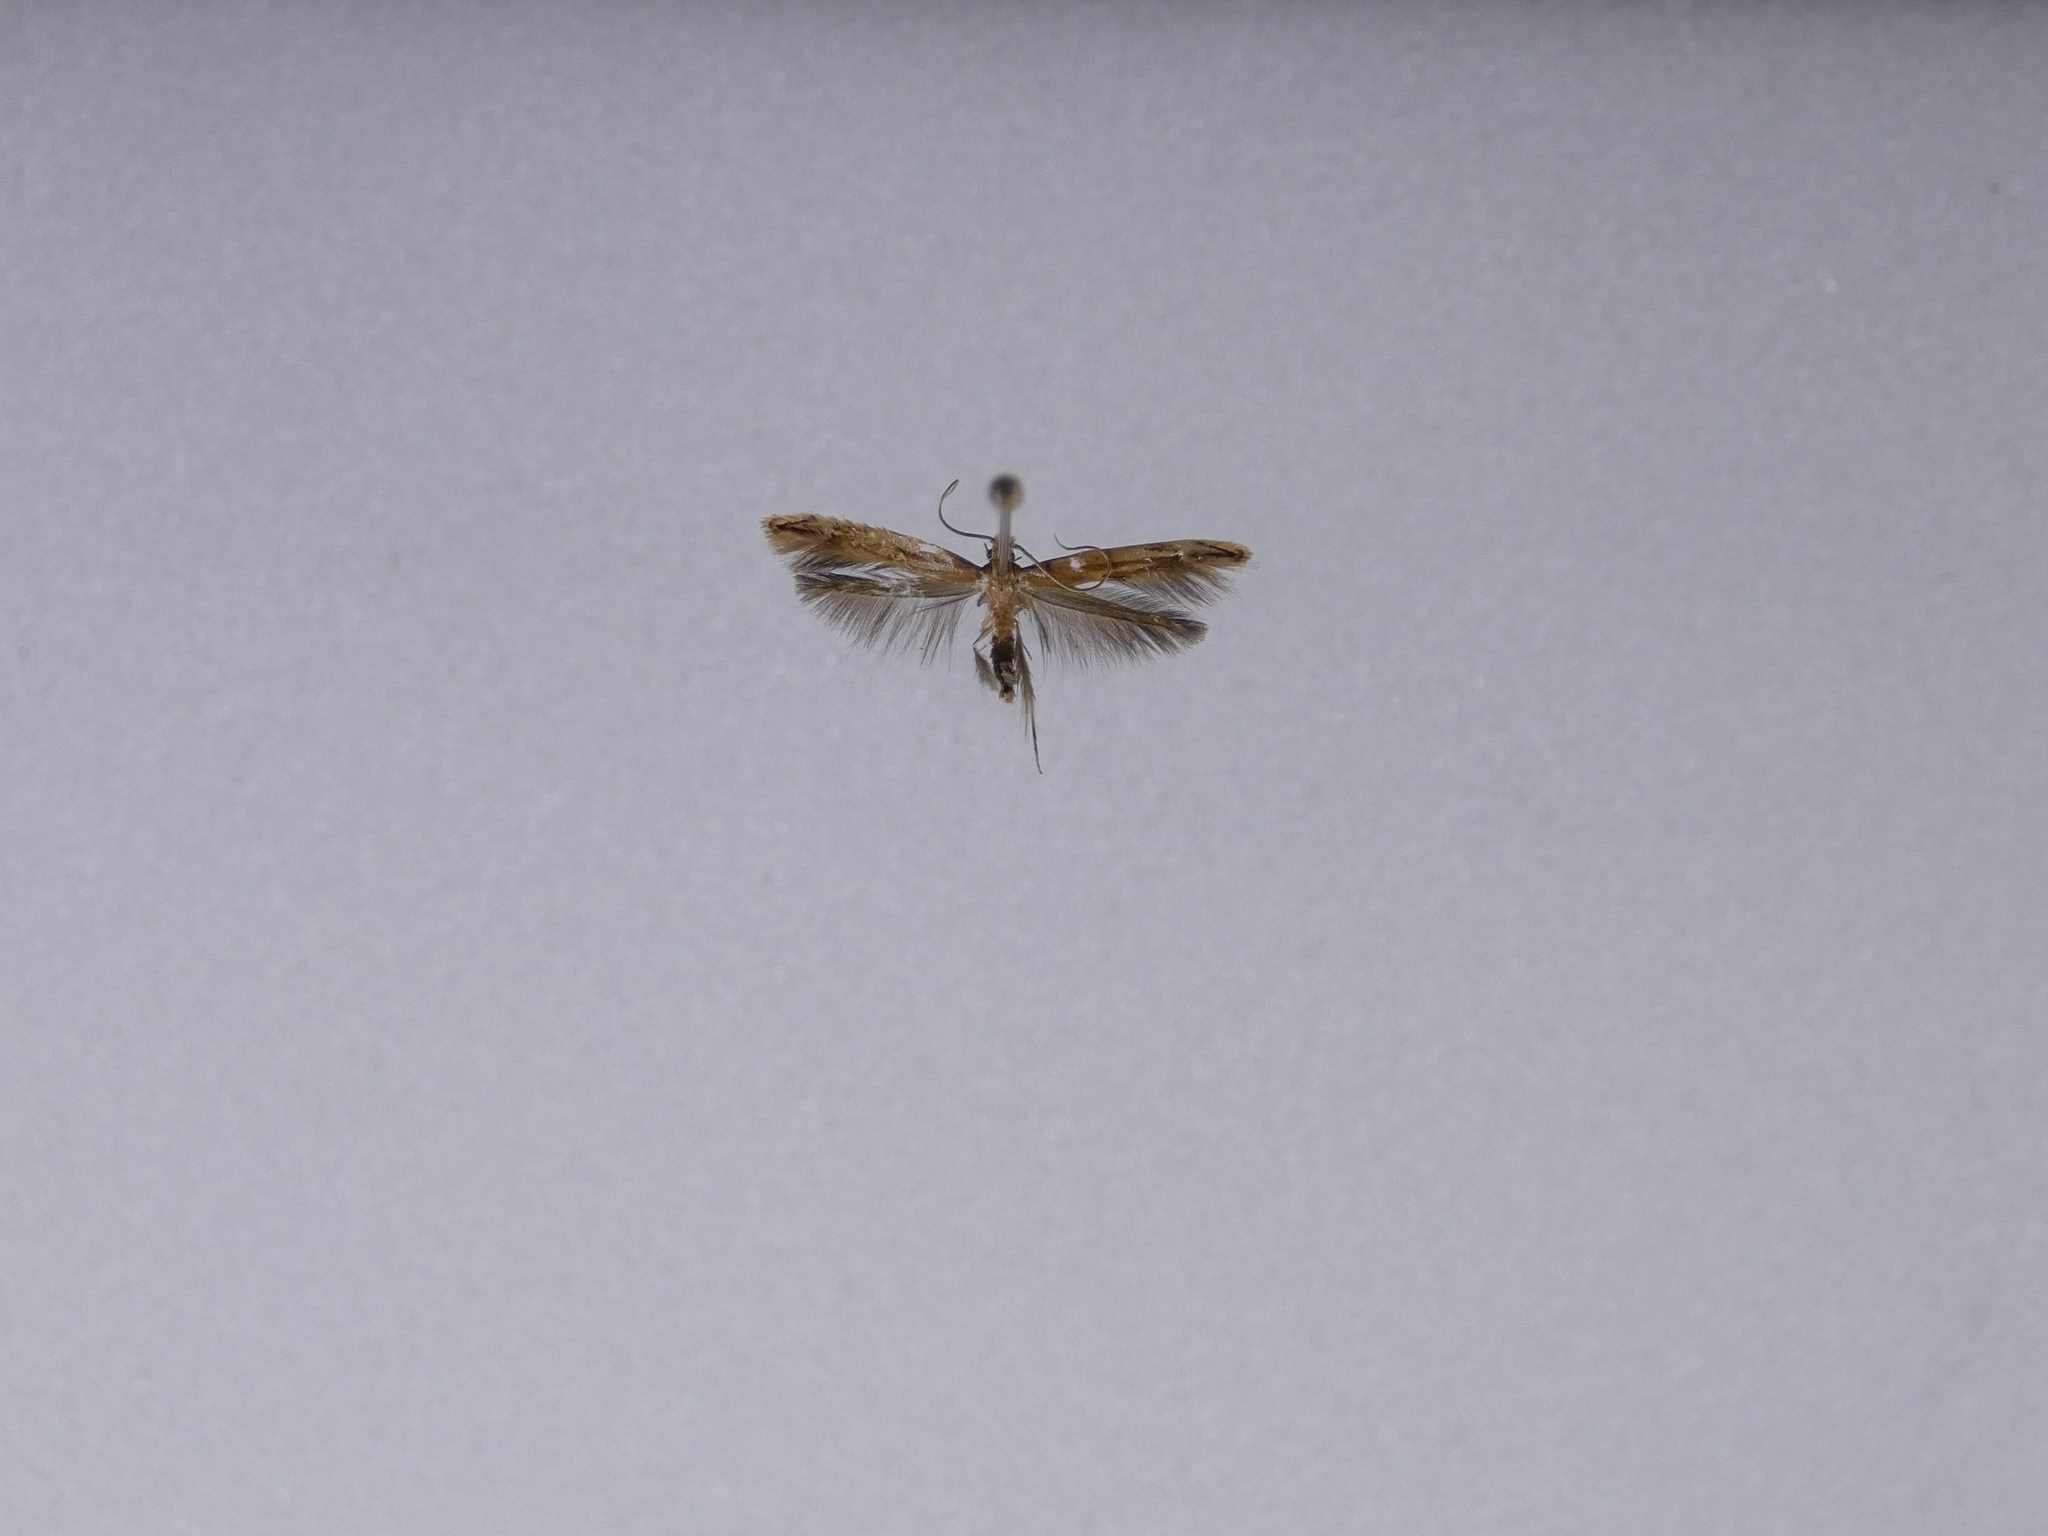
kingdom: Animalia
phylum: Arthropoda
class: Insecta
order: Lepidoptera
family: Tineidae
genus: Amphixystis
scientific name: Amphixystis hapsimacha
